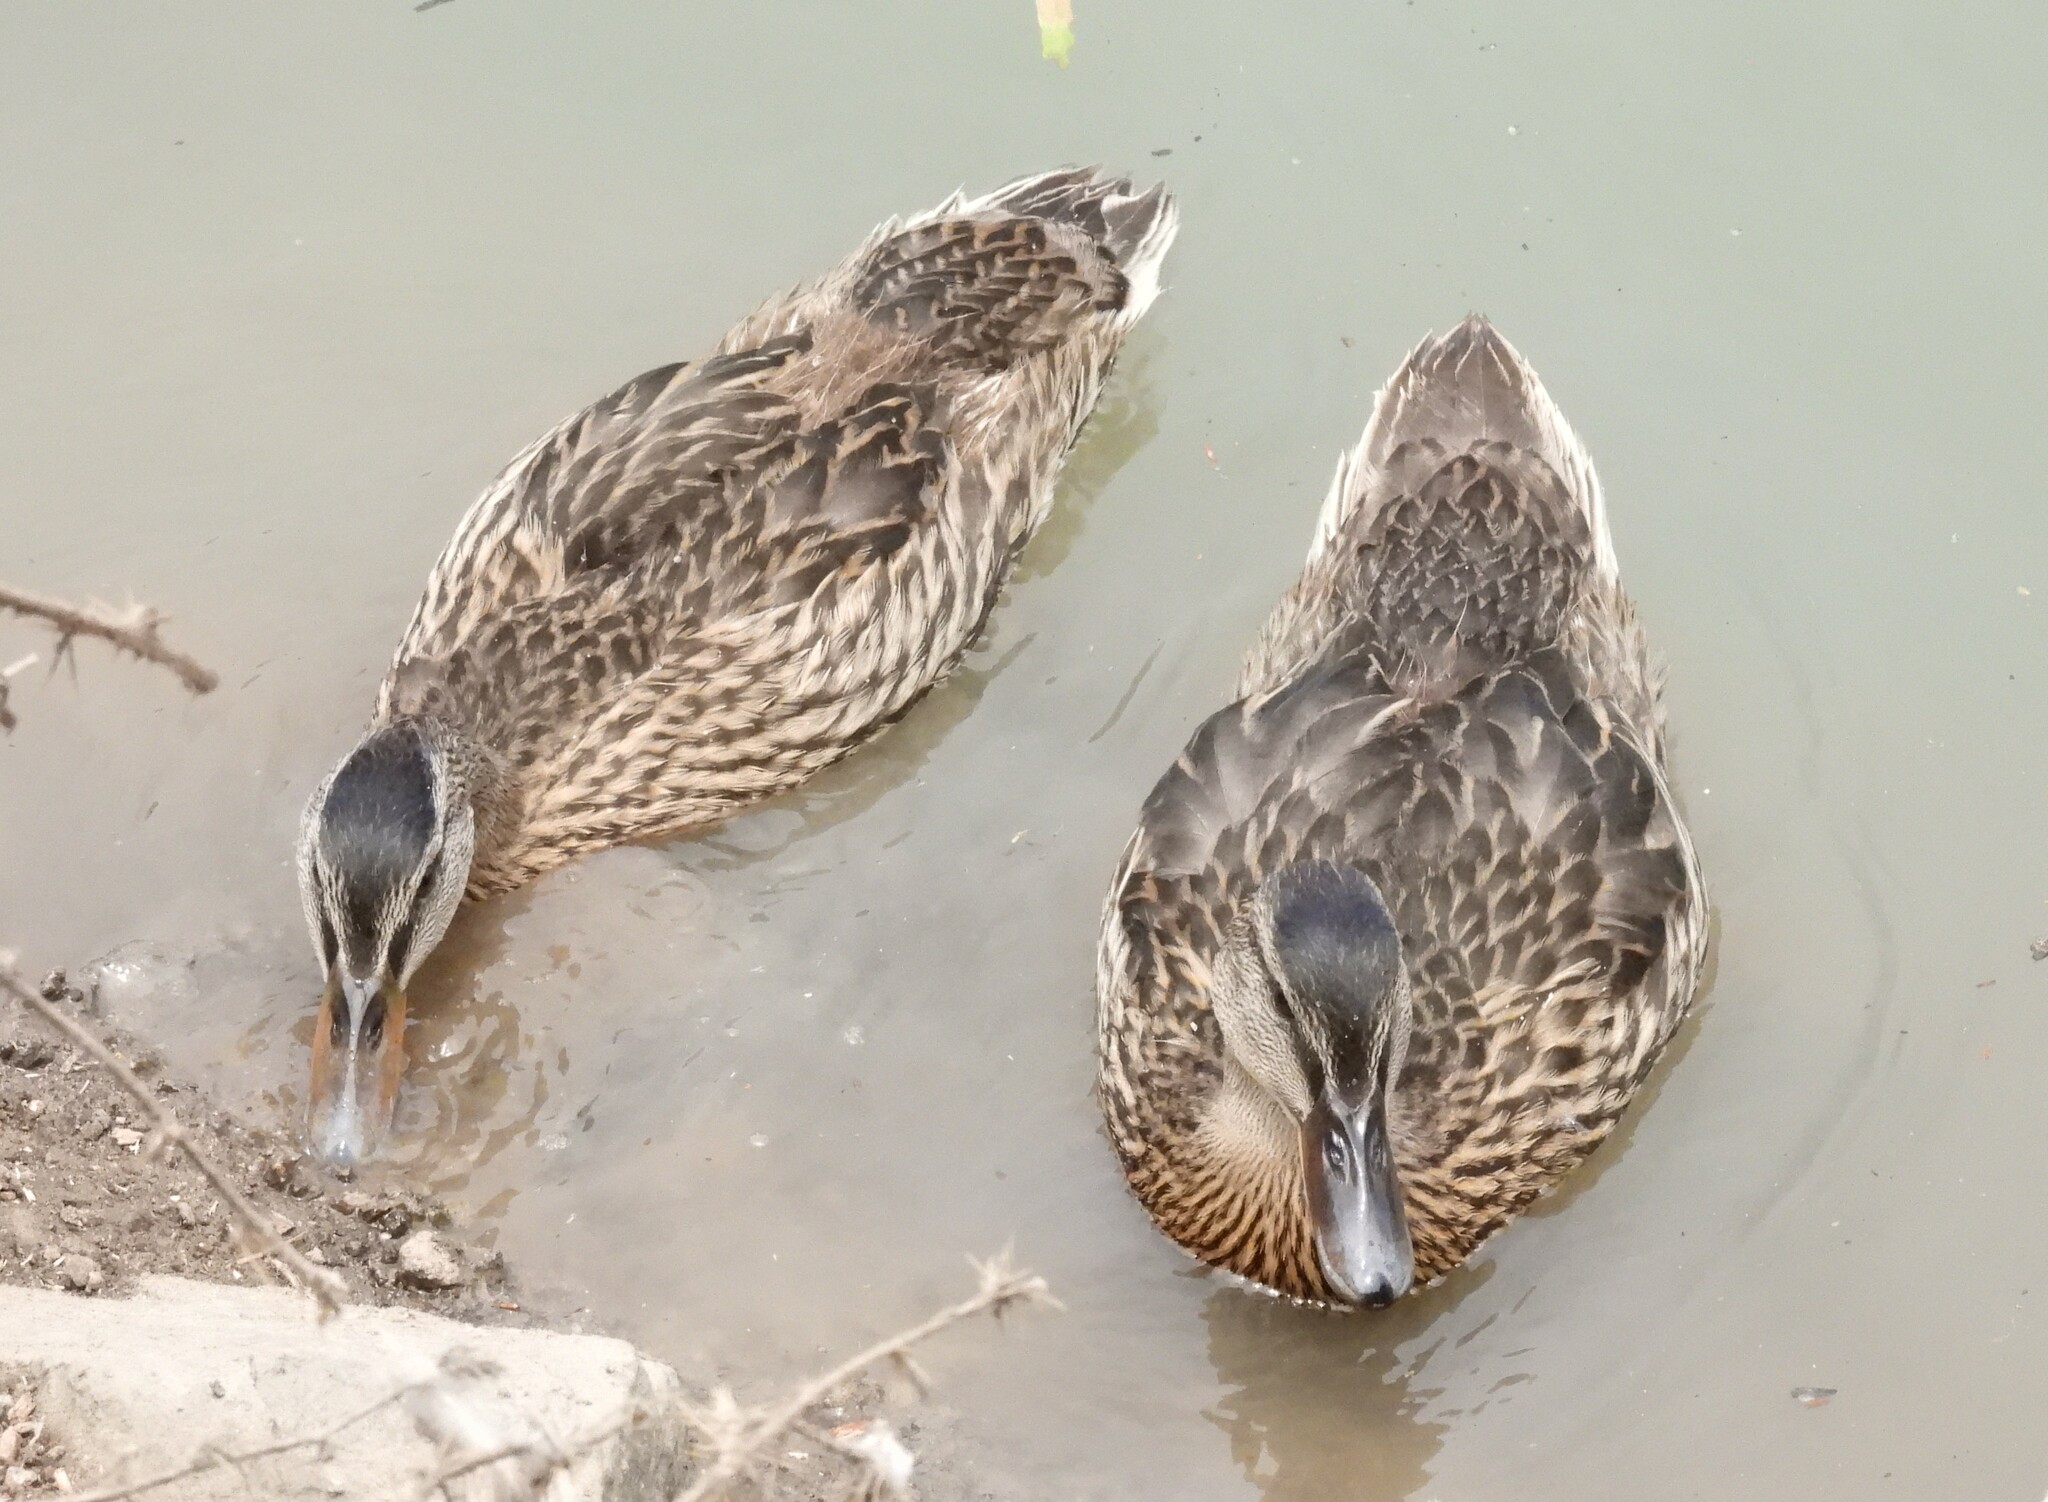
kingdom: Animalia
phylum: Chordata
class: Aves
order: Anseriformes
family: Anatidae
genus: Anas
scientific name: Anas platyrhynchos
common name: Mallard
